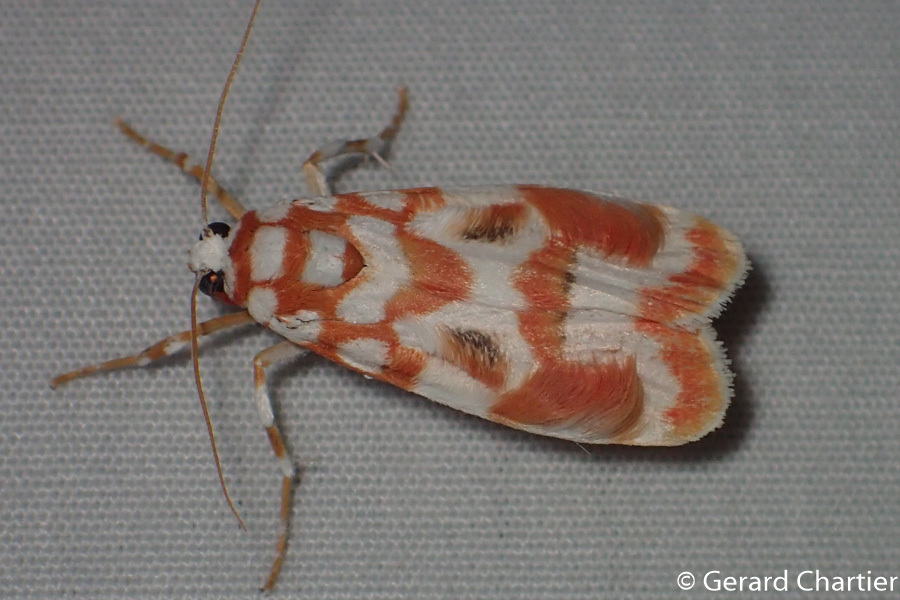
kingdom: Animalia
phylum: Arthropoda
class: Insecta
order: Lepidoptera
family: Erebidae
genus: Cyana
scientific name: Cyana costifimbria
